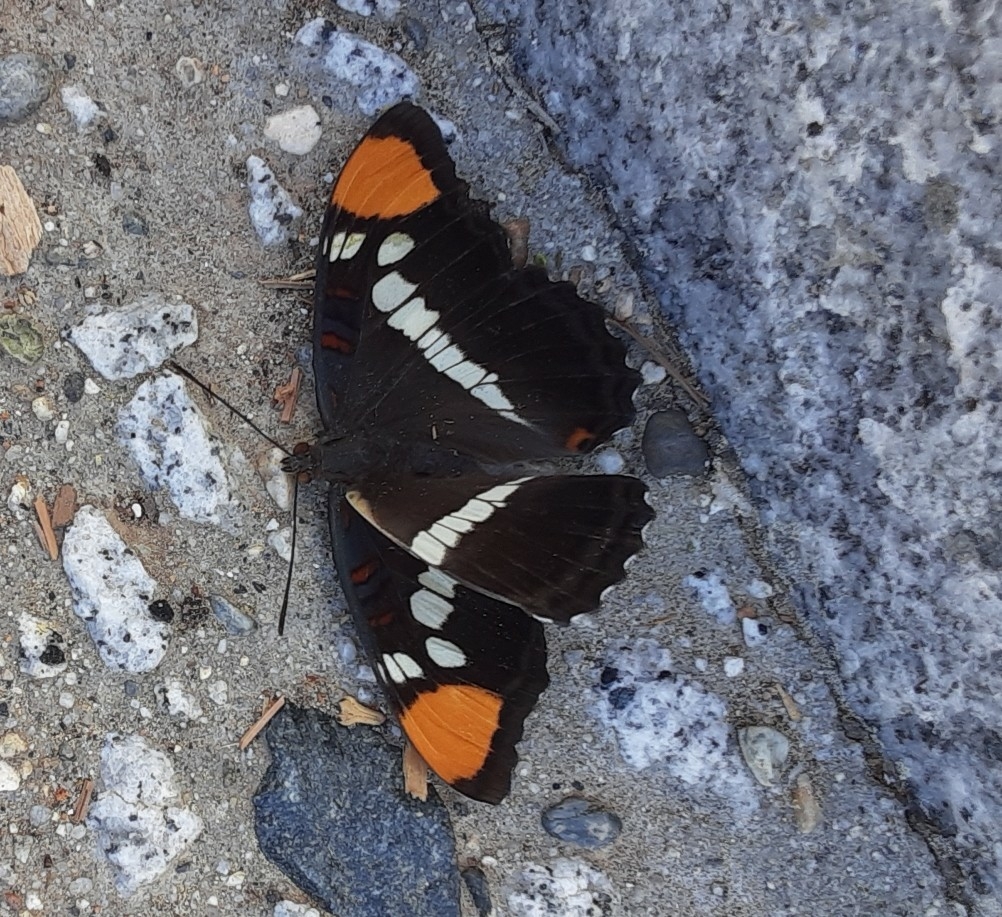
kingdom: Animalia
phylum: Arthropoda
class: Insecta
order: Lepidoptera
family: Nymphalidae
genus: Limenitis
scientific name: Limenitis bredowii
